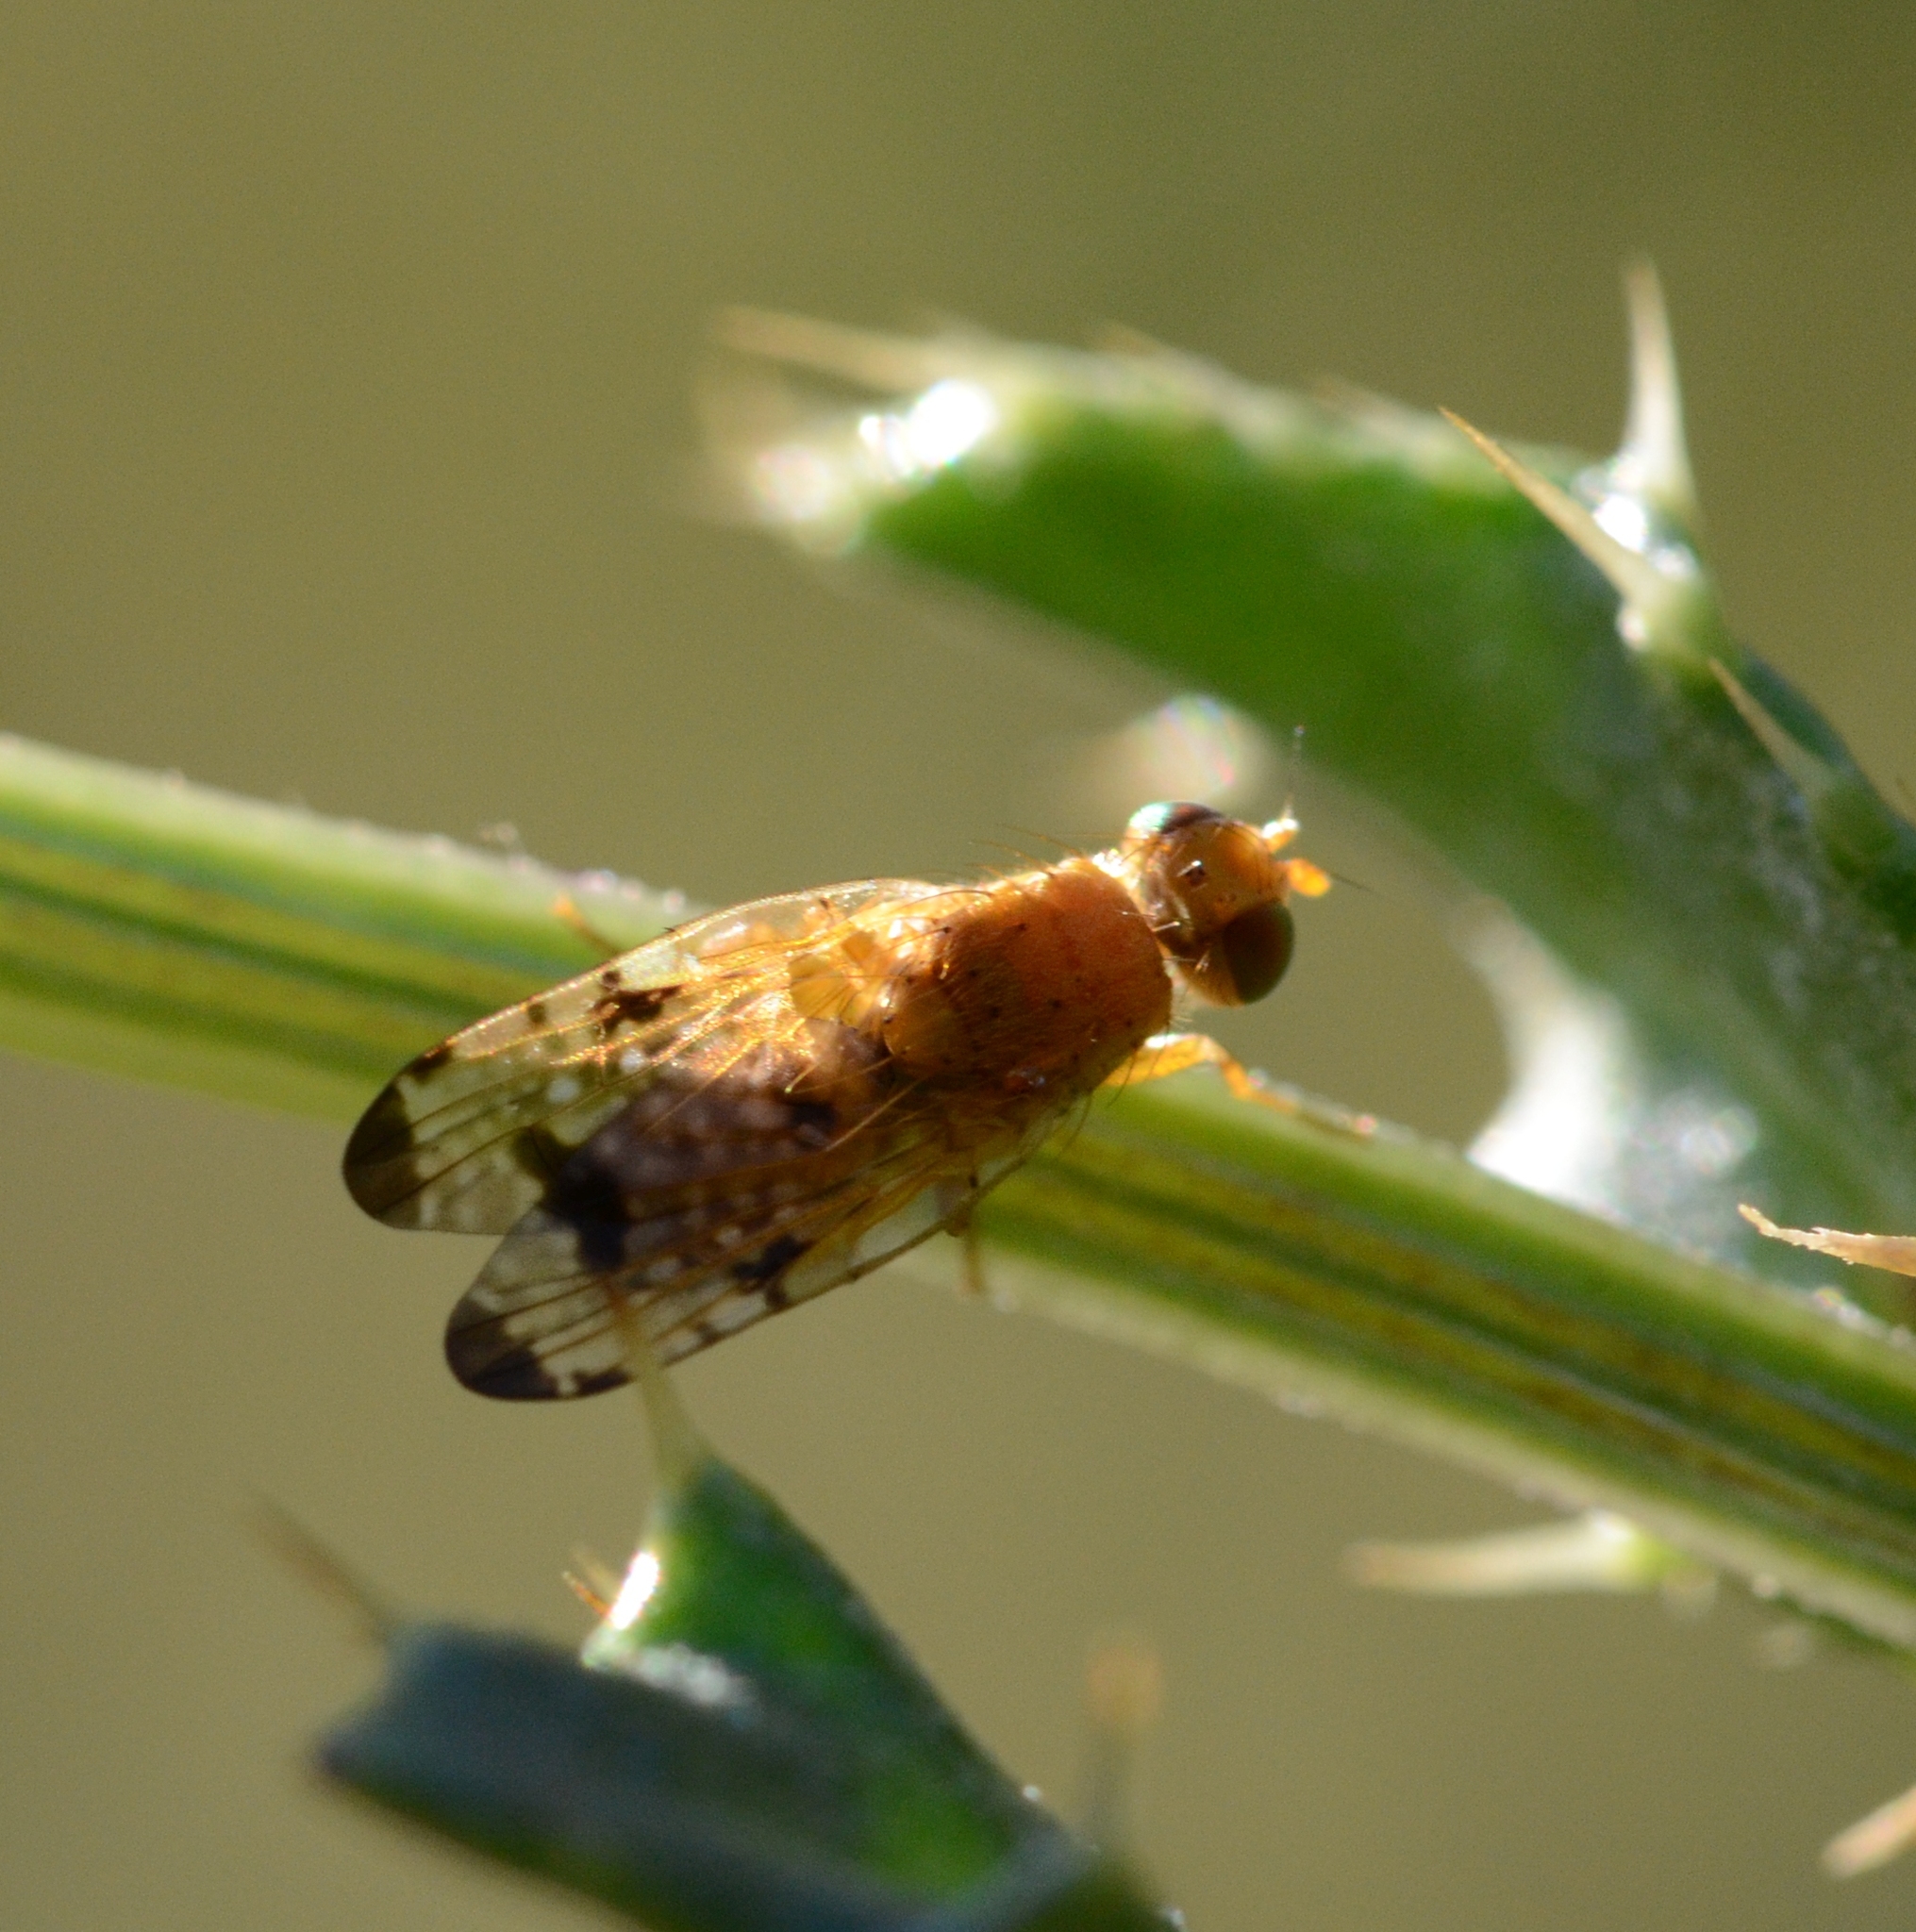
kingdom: Animalia
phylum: Arthropoda
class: Insecta
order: Diptera
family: Tephritidae
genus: Xyphosia
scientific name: Xyphosia miliaria
